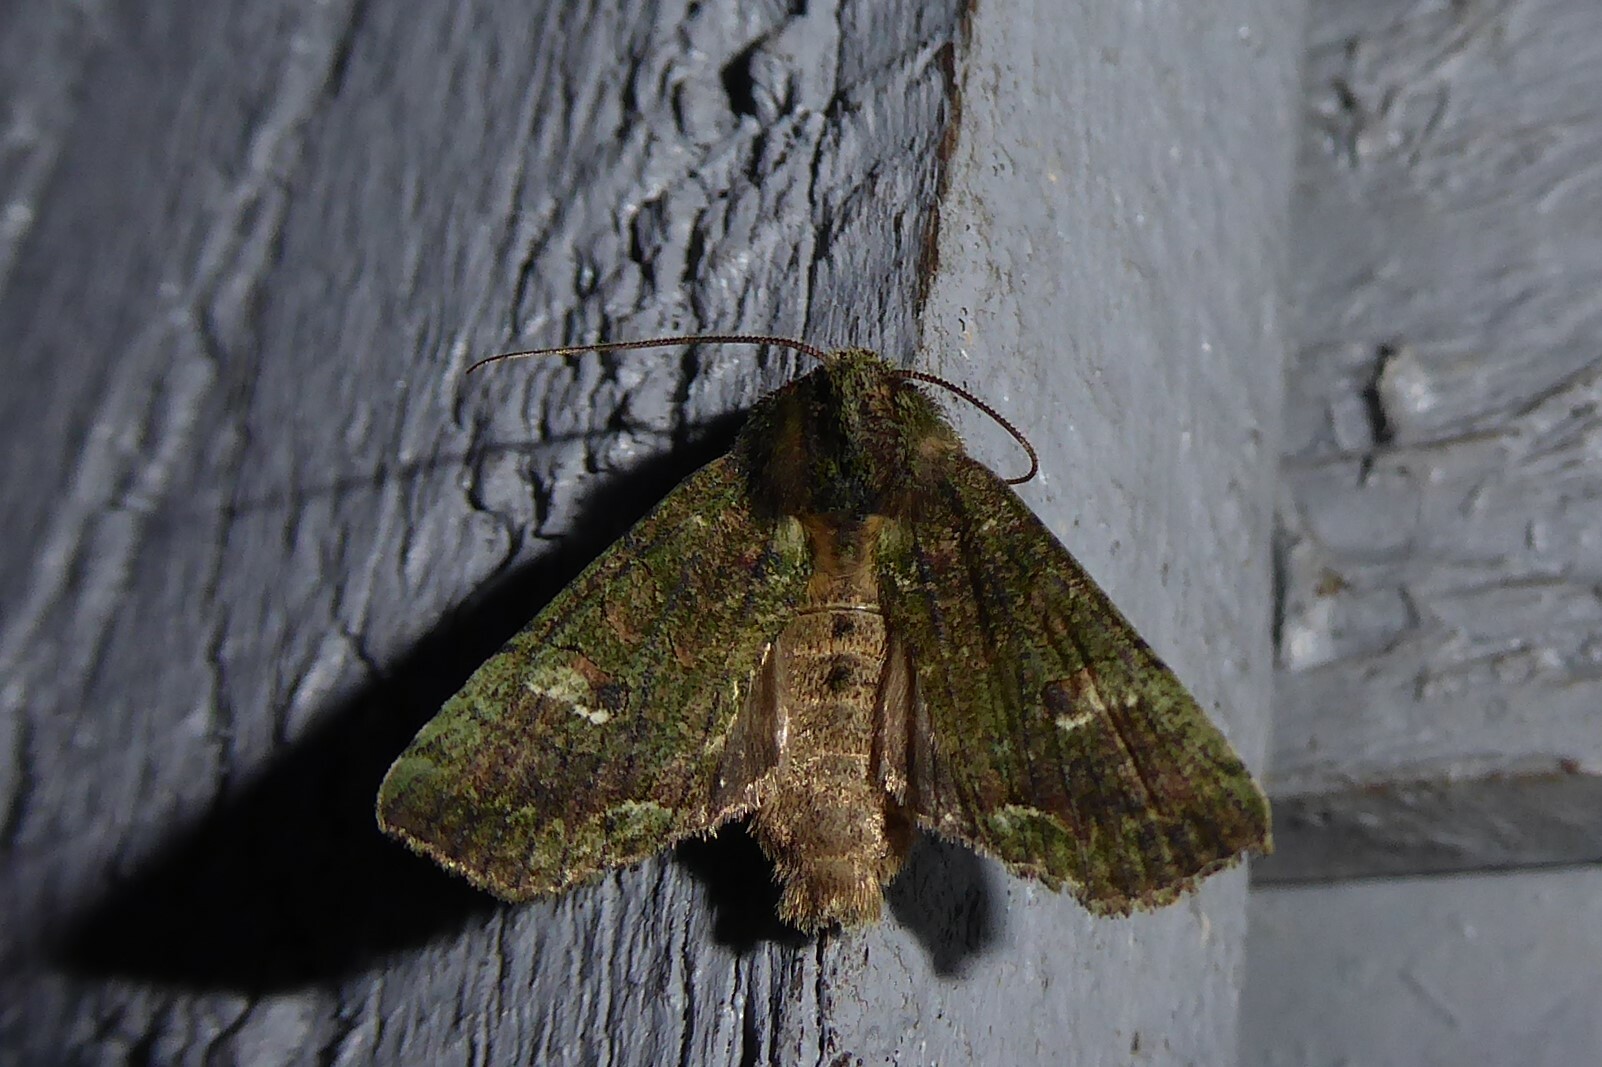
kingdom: Animalia
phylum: Arthropoda
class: Insecta
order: Lepidoptera
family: Noctuidae
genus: Meterana
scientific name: Meterana levis
